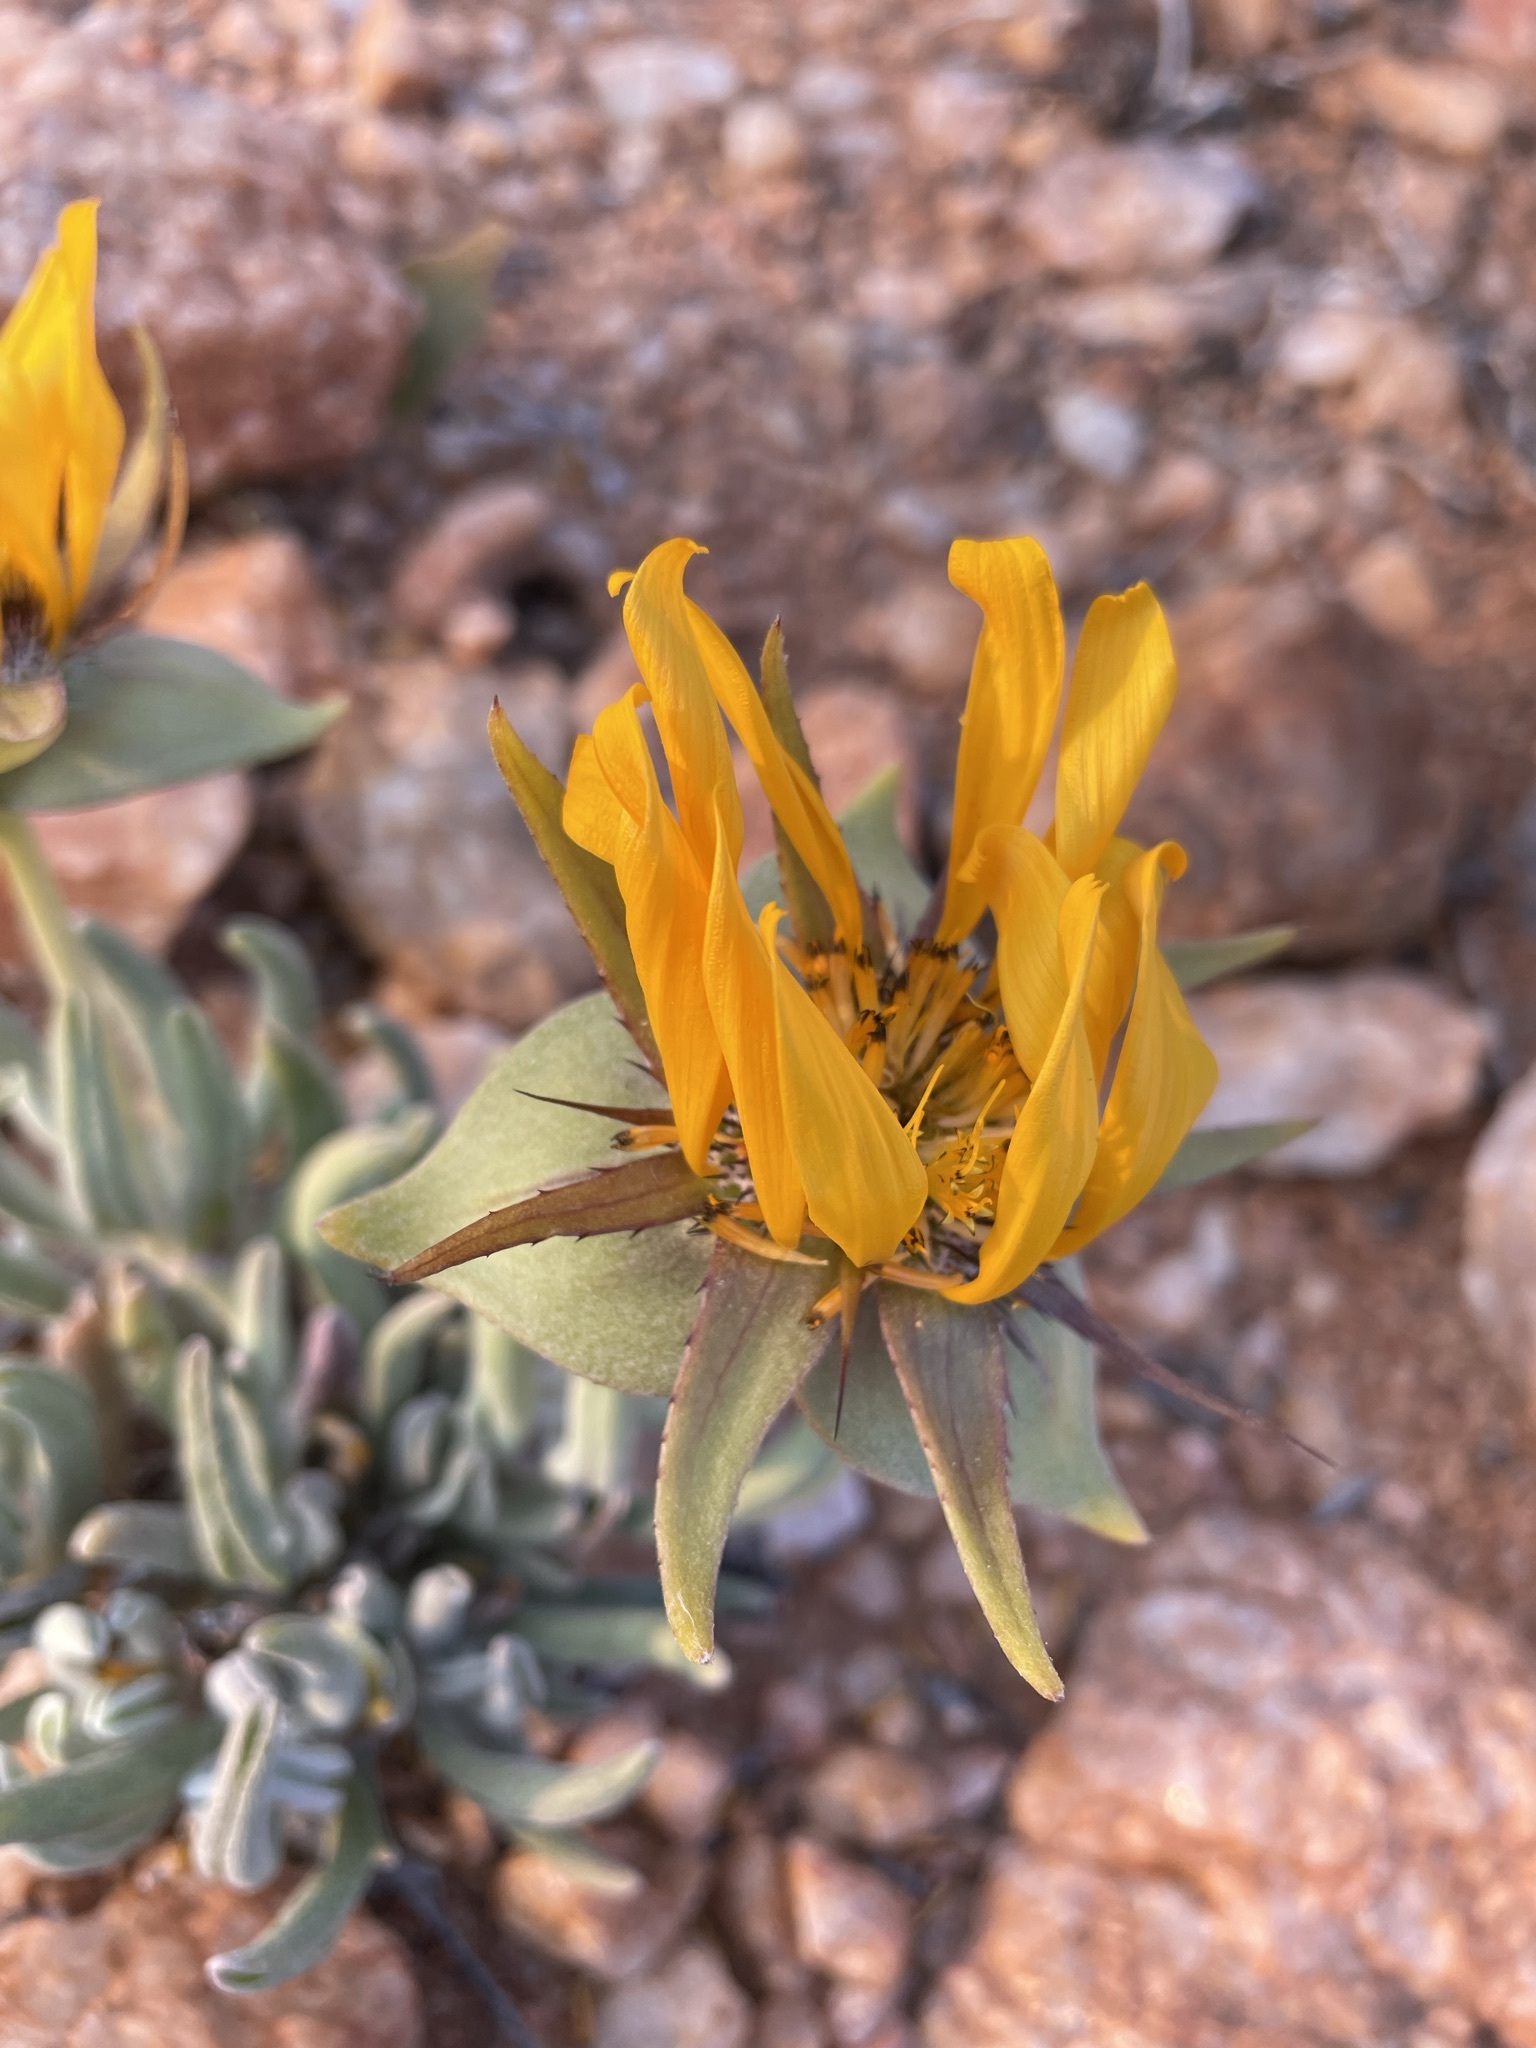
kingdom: Plantae
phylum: Tracheophyta
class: Magnoliopsida
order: Asterales
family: Asteraceae
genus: Didelta
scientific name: Didelta carnosa
